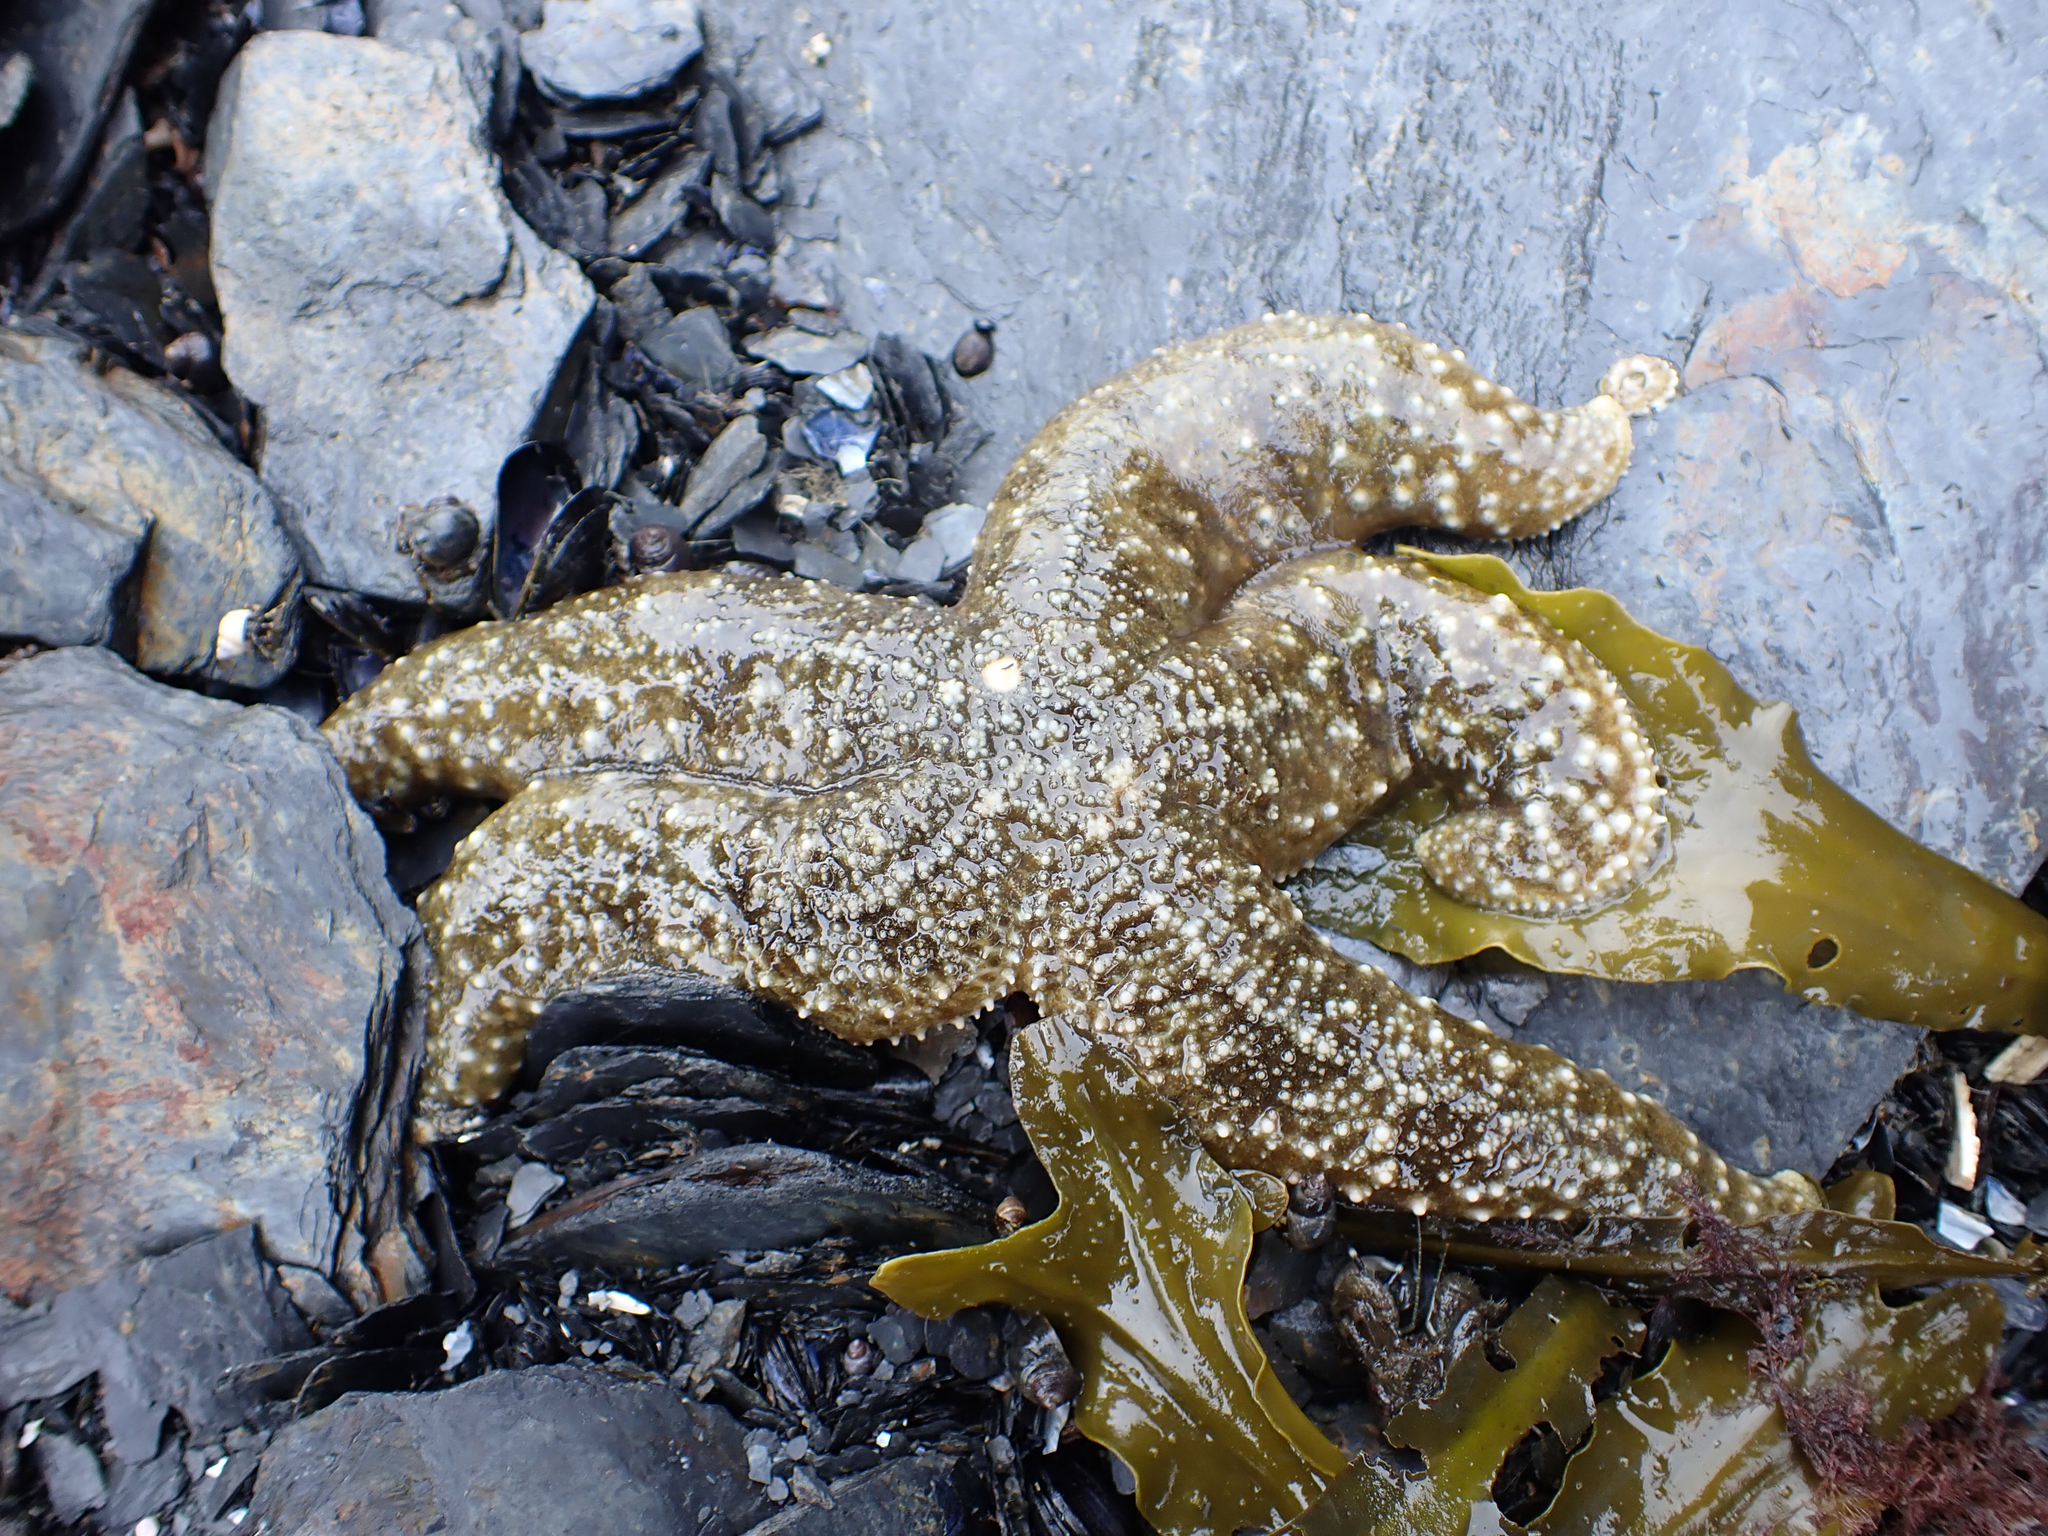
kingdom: Animalia
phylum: Echinodermata
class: Asteroidea
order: Forcipulatida
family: Asteriidae
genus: Evasterias
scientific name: Evasterias troschelii
